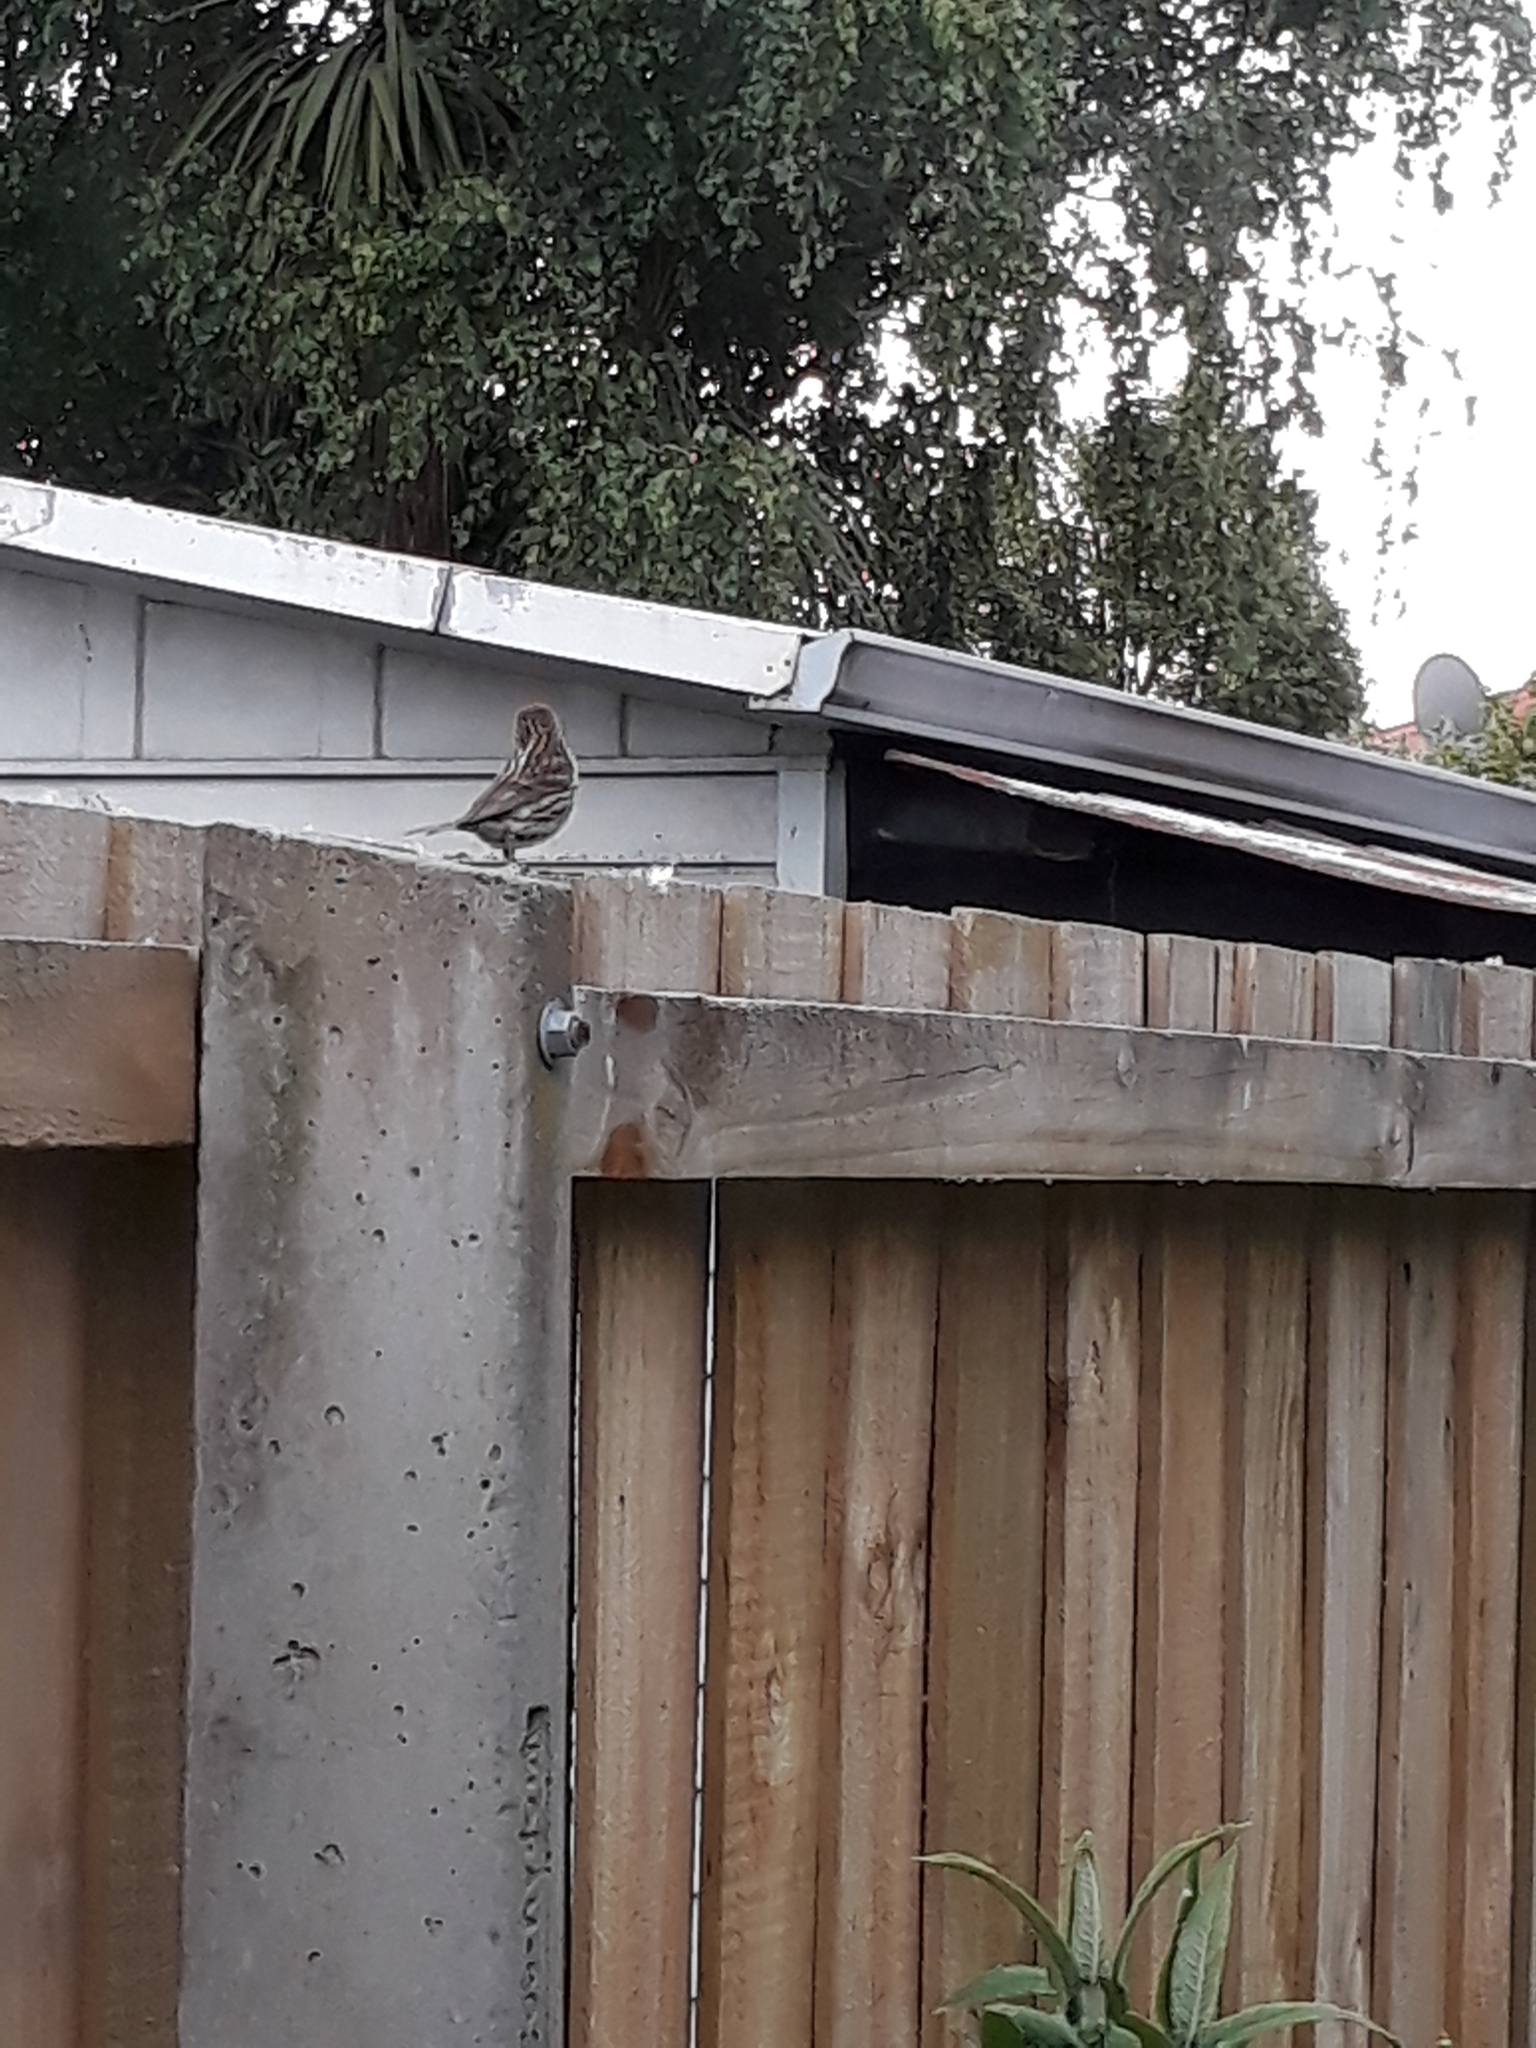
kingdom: Animalia
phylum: Chordata
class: Aves
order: Passeriformes
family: Fringillidae
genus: Acanthis
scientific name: Acanthis flammea
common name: Common redpoll
